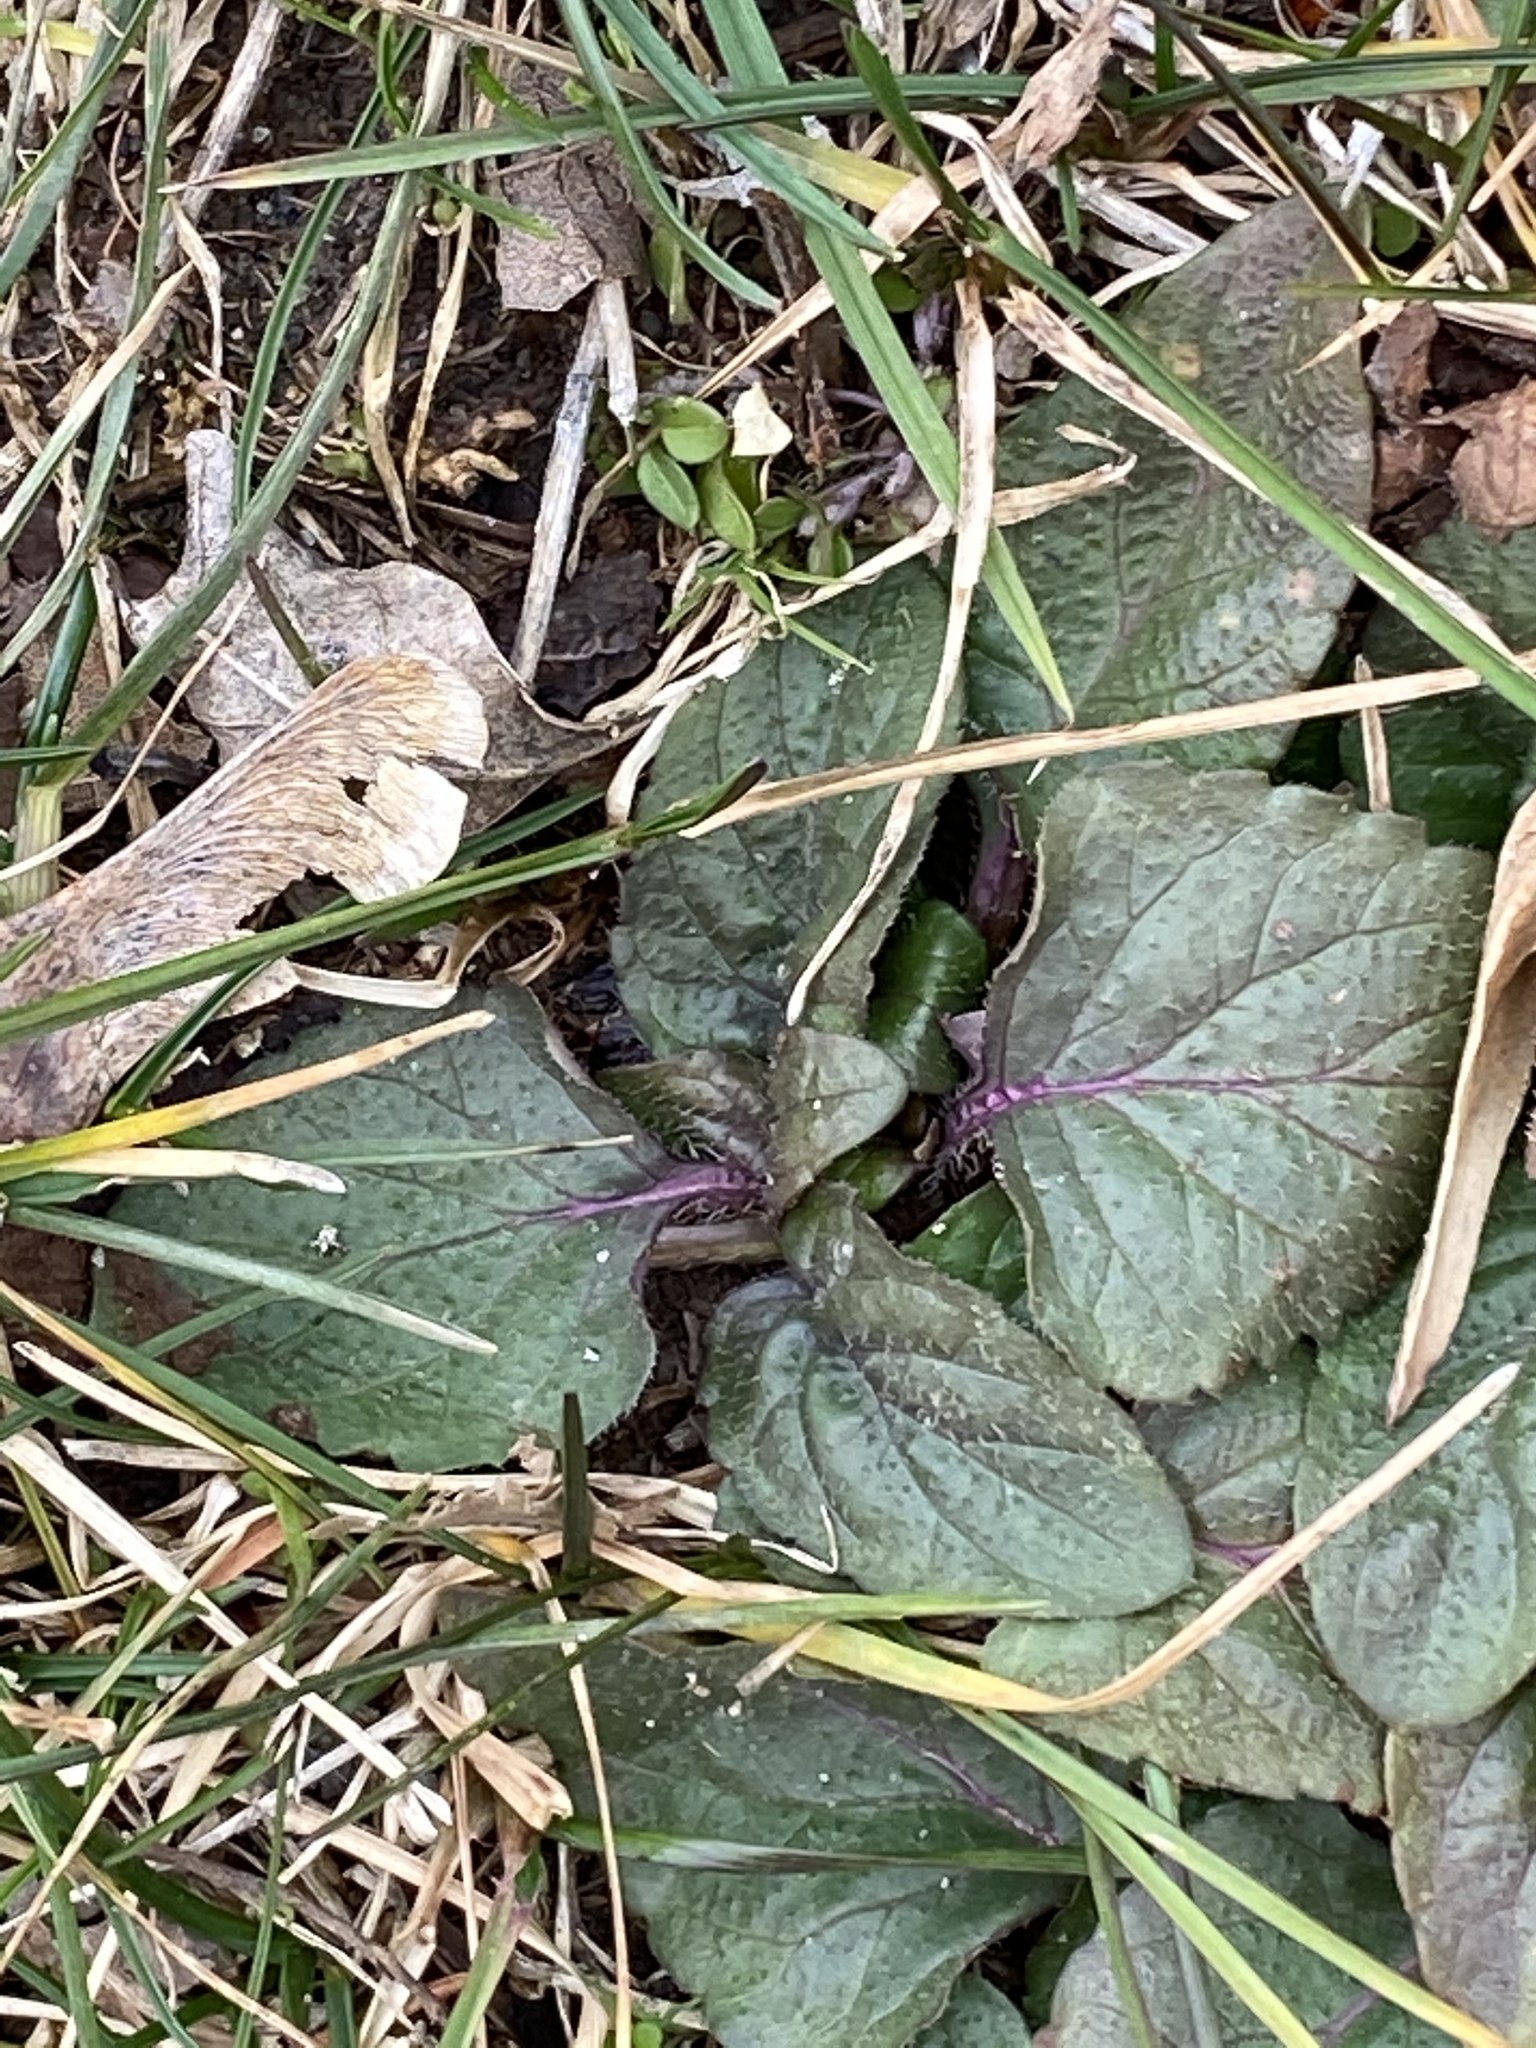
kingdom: Plantae
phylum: Tracheophyta
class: Magnoliopsida
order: Lamiales
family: Lamiaceae
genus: Prunella
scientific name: Prunella vulgaris
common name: Heal-all
